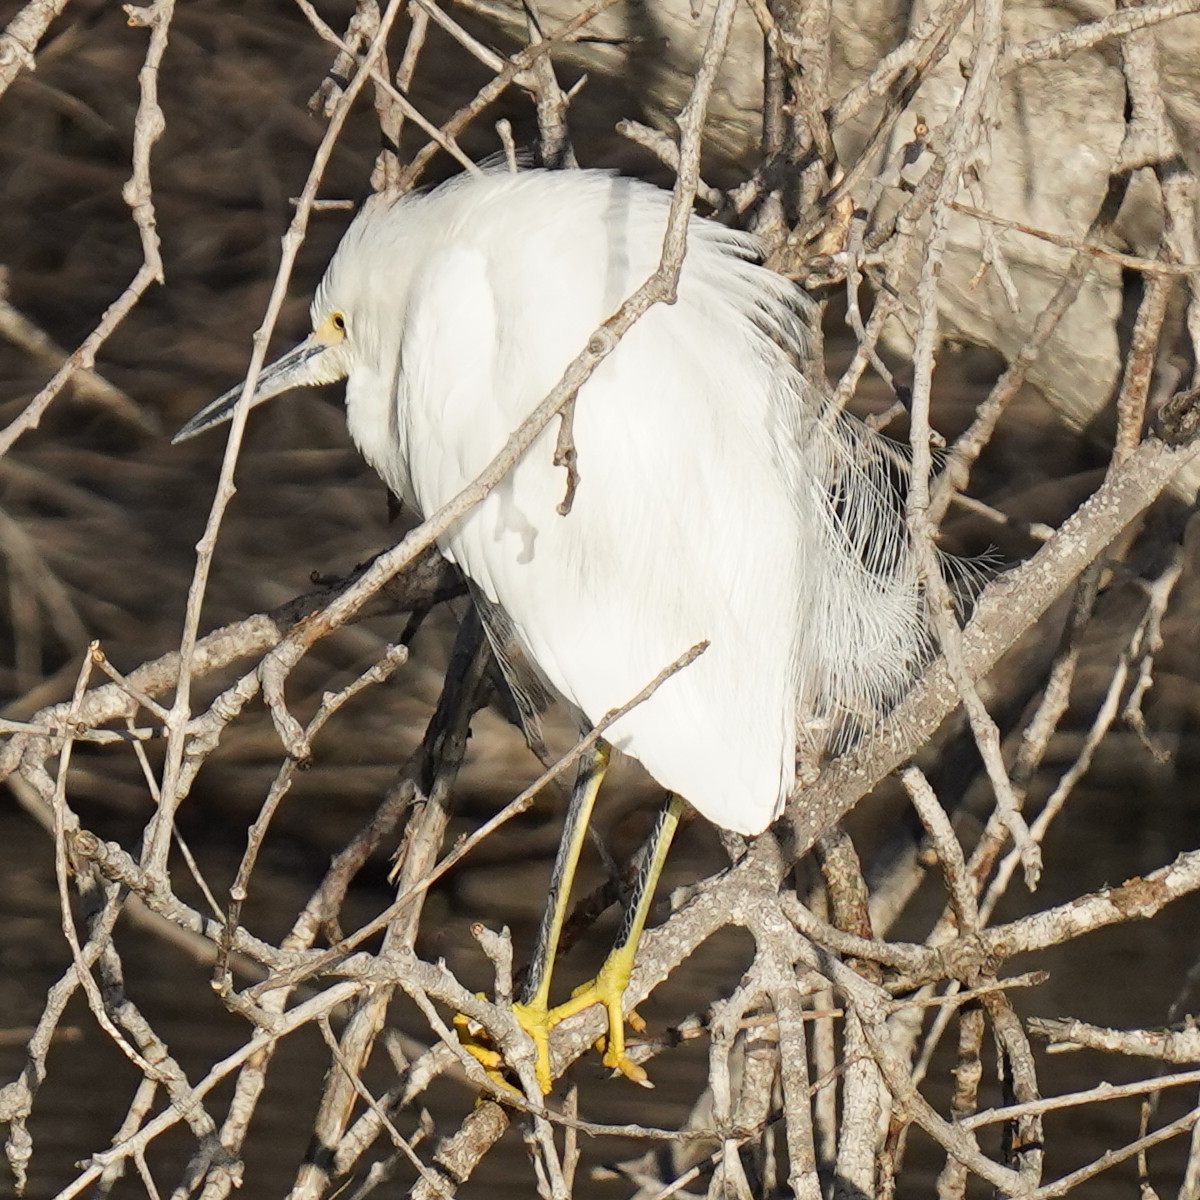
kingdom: Animalia
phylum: Chordata
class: Aves
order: Pelecaniformes
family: Ardeidae
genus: Egretta
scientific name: Egretta thula
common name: Snowy egret
